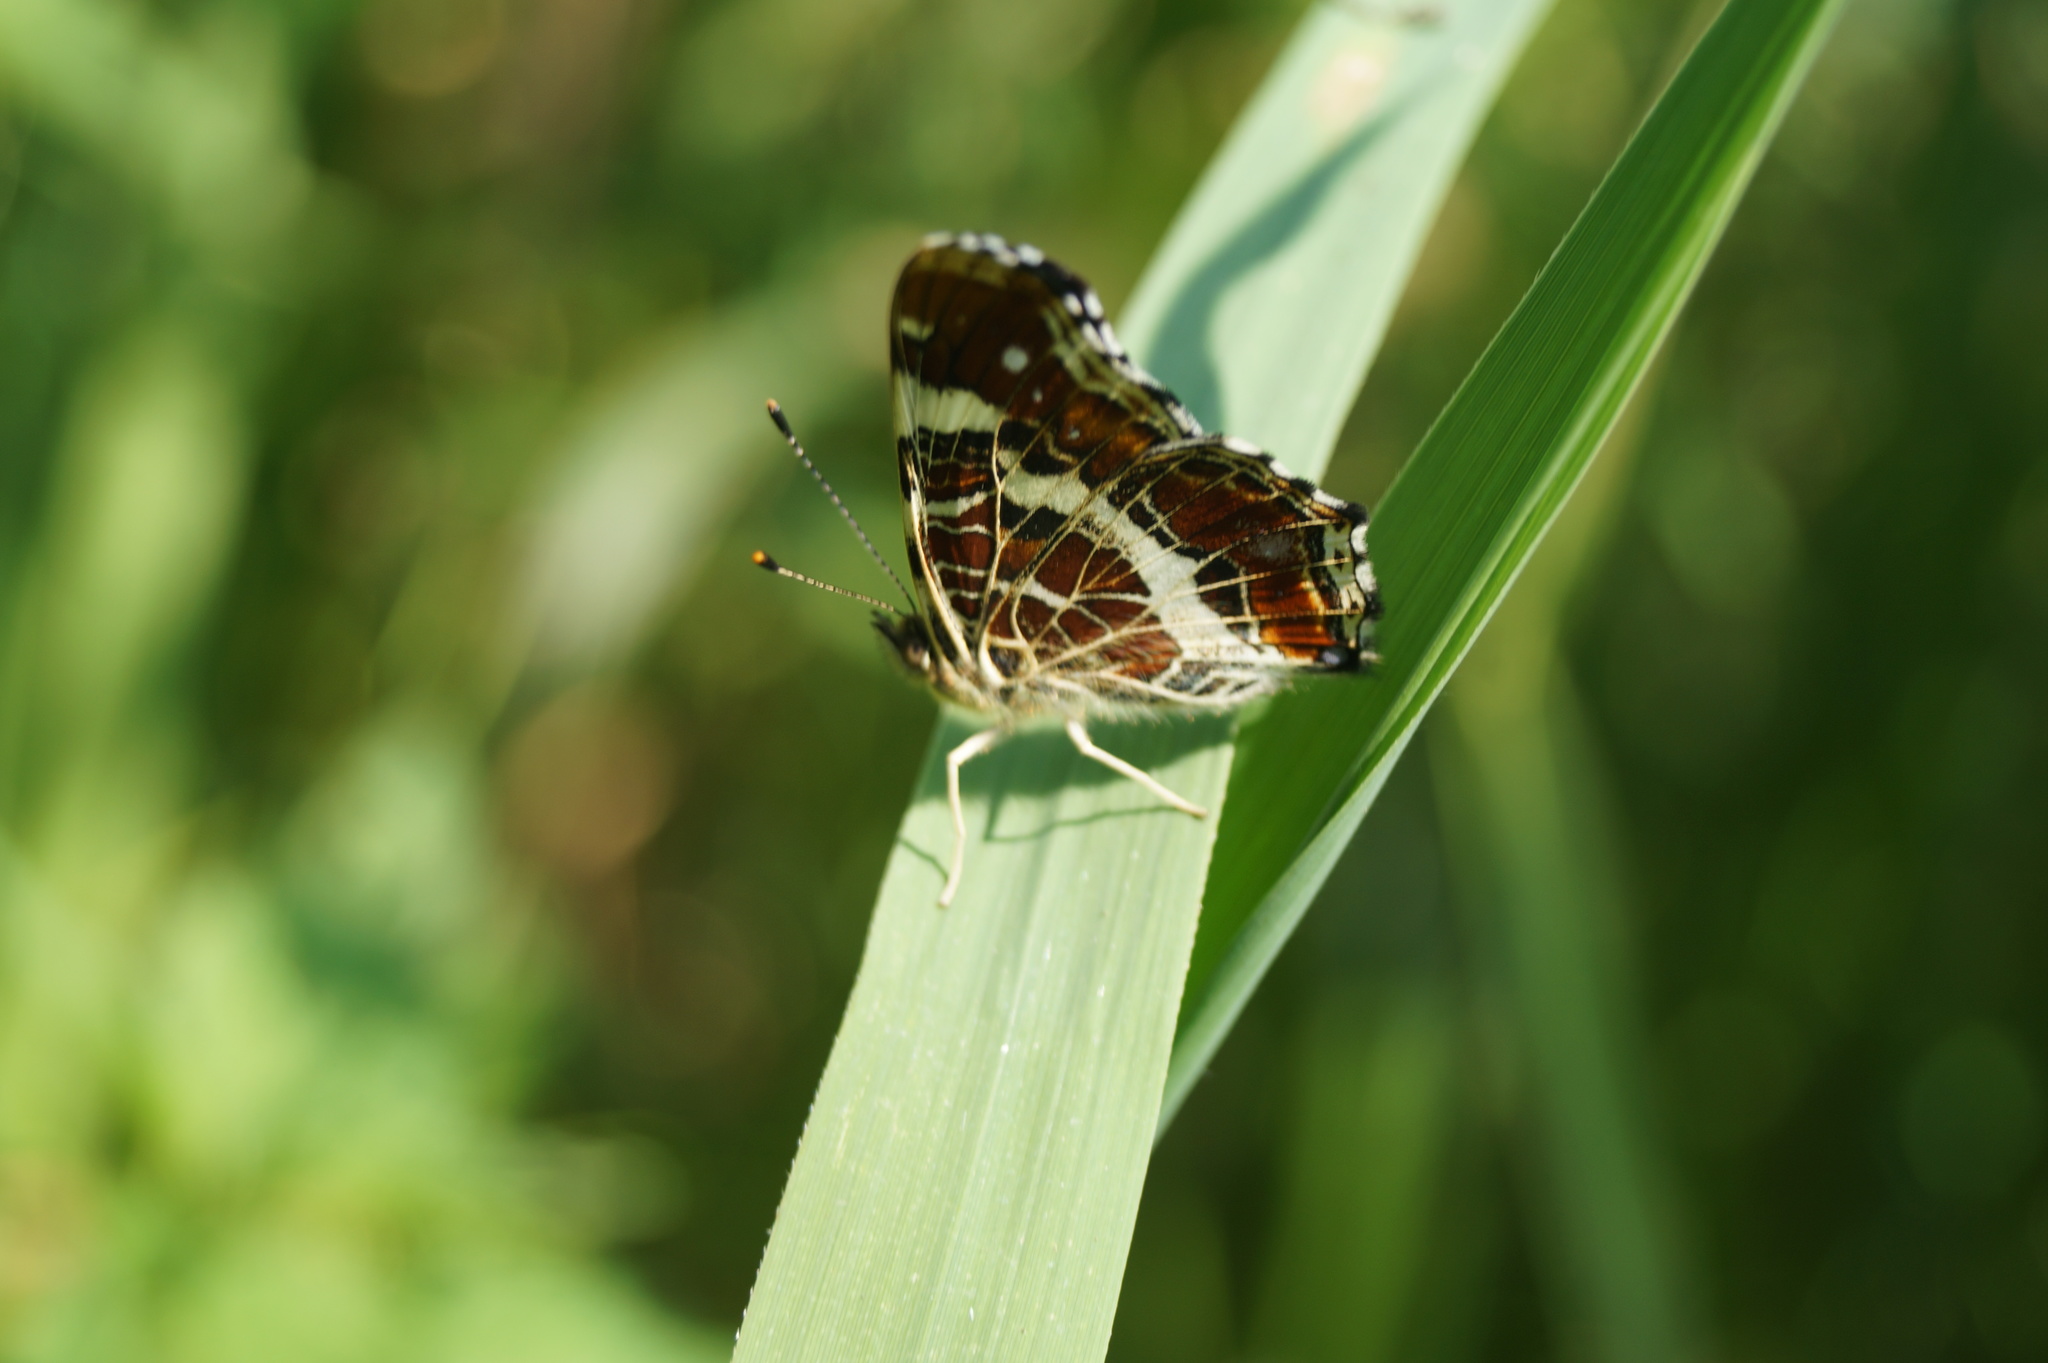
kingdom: Animalia
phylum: Arthropoda
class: Insecta
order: Lepidoptera
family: Nymphalidae
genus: Araschnia
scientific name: Araschnia levana
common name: Map butterfly
